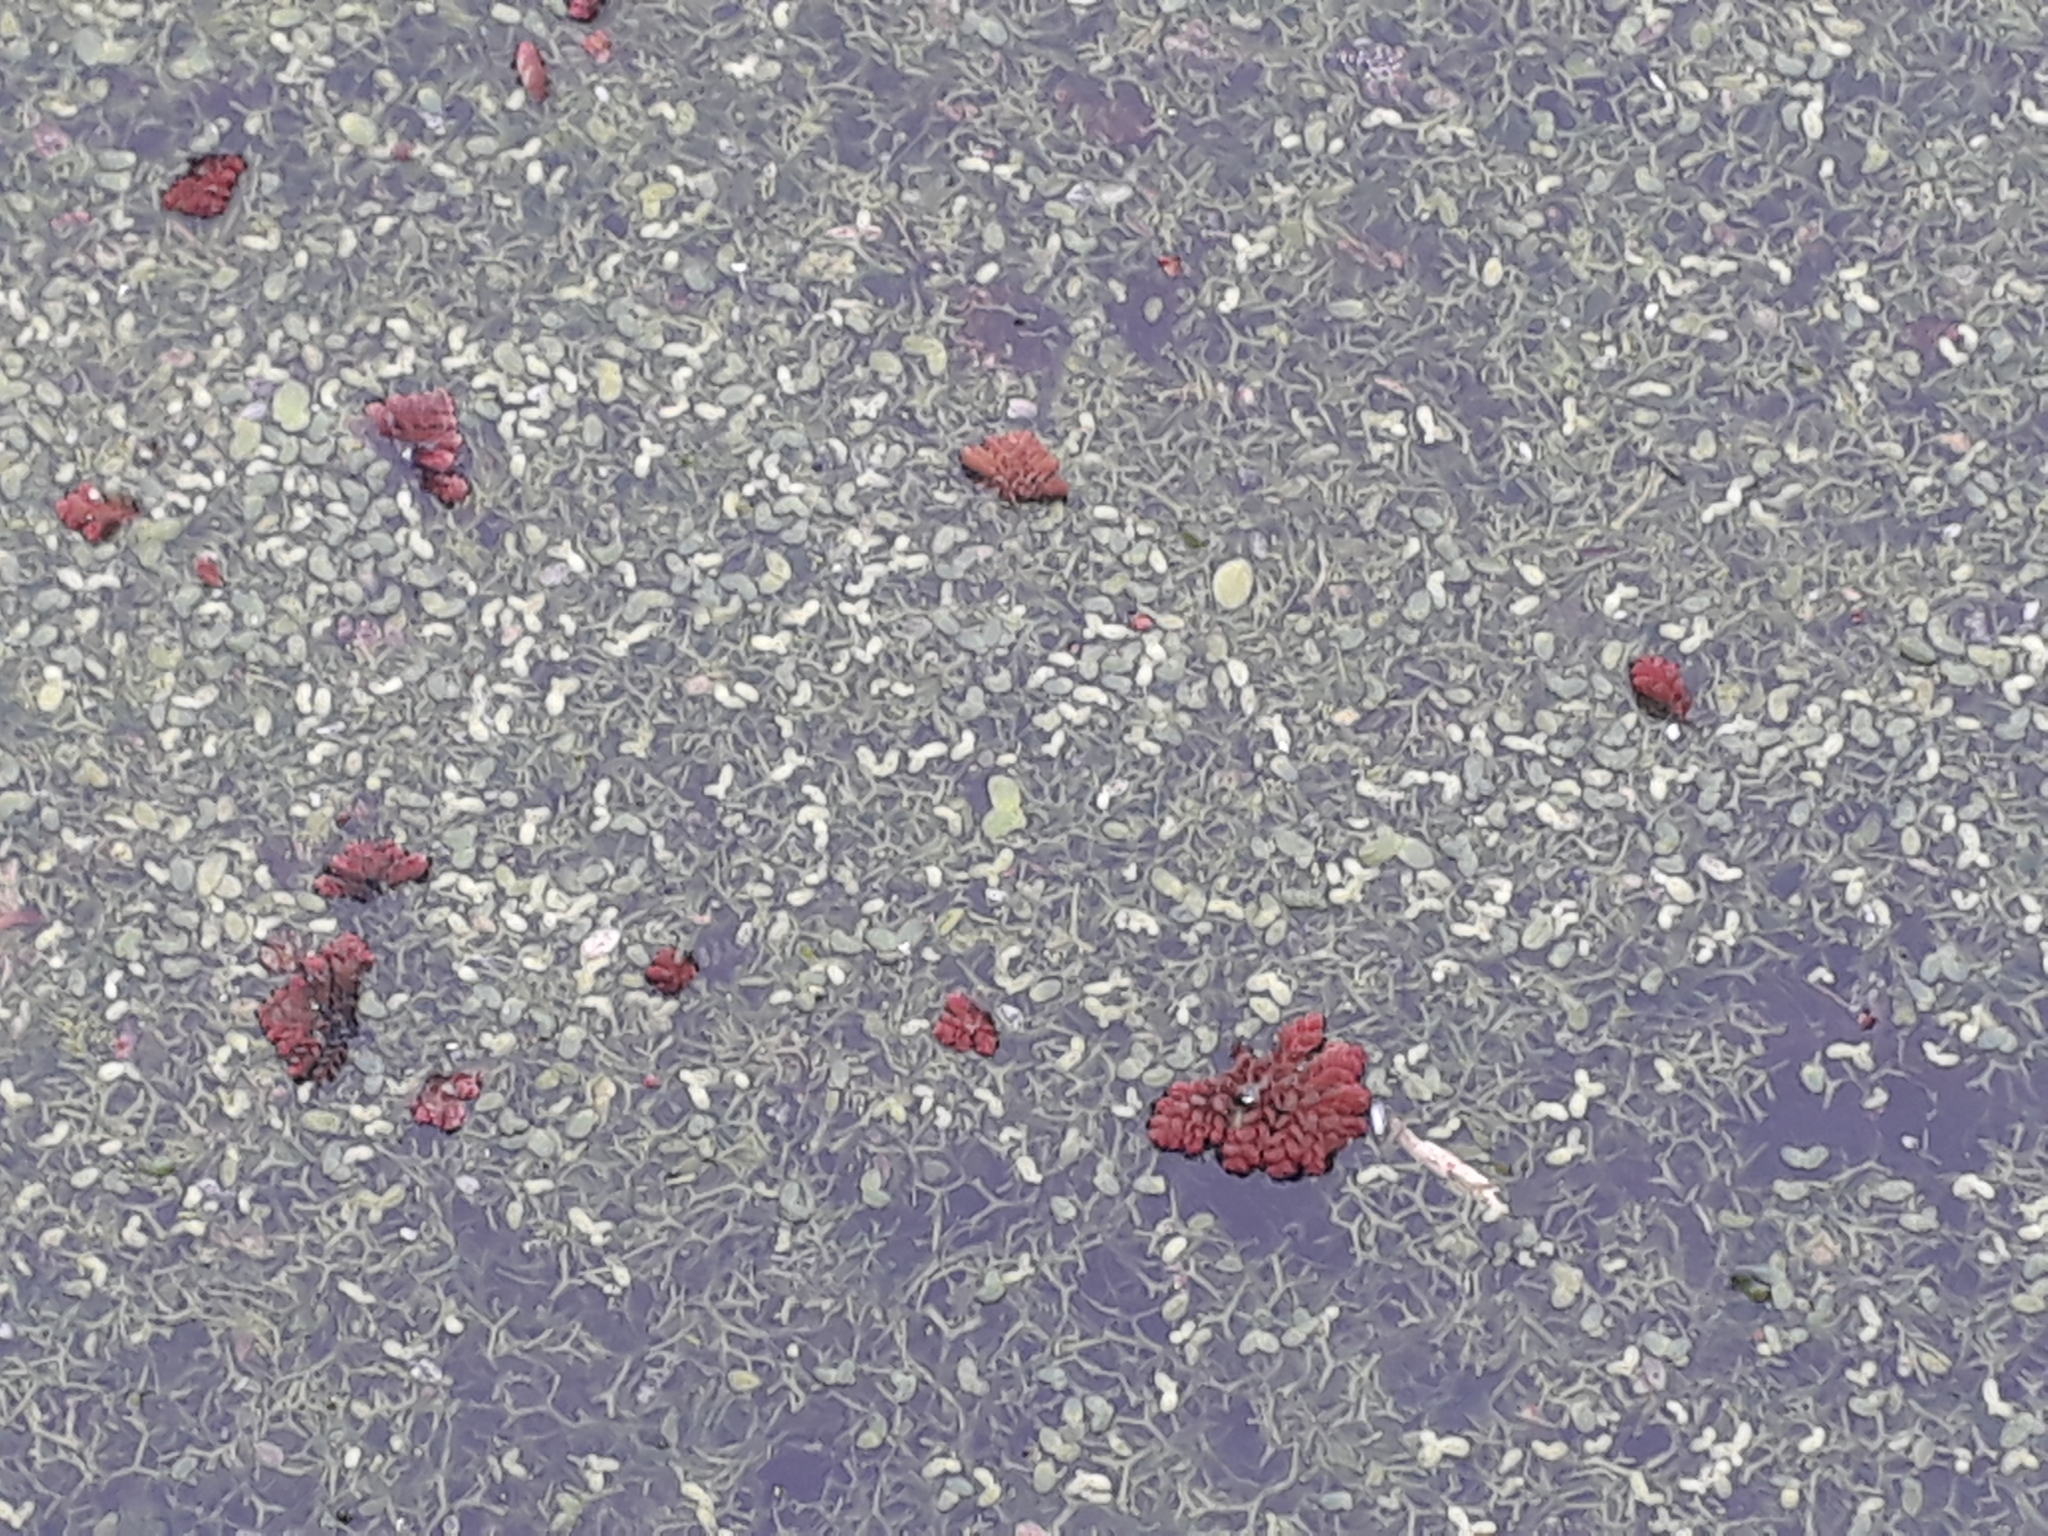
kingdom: Plantae
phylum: Tracheophyta
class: Polypodiopsida
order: Salviniales
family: Salviniaceae
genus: Azolla
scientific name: Azolla pinnata
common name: Ferny azolla
